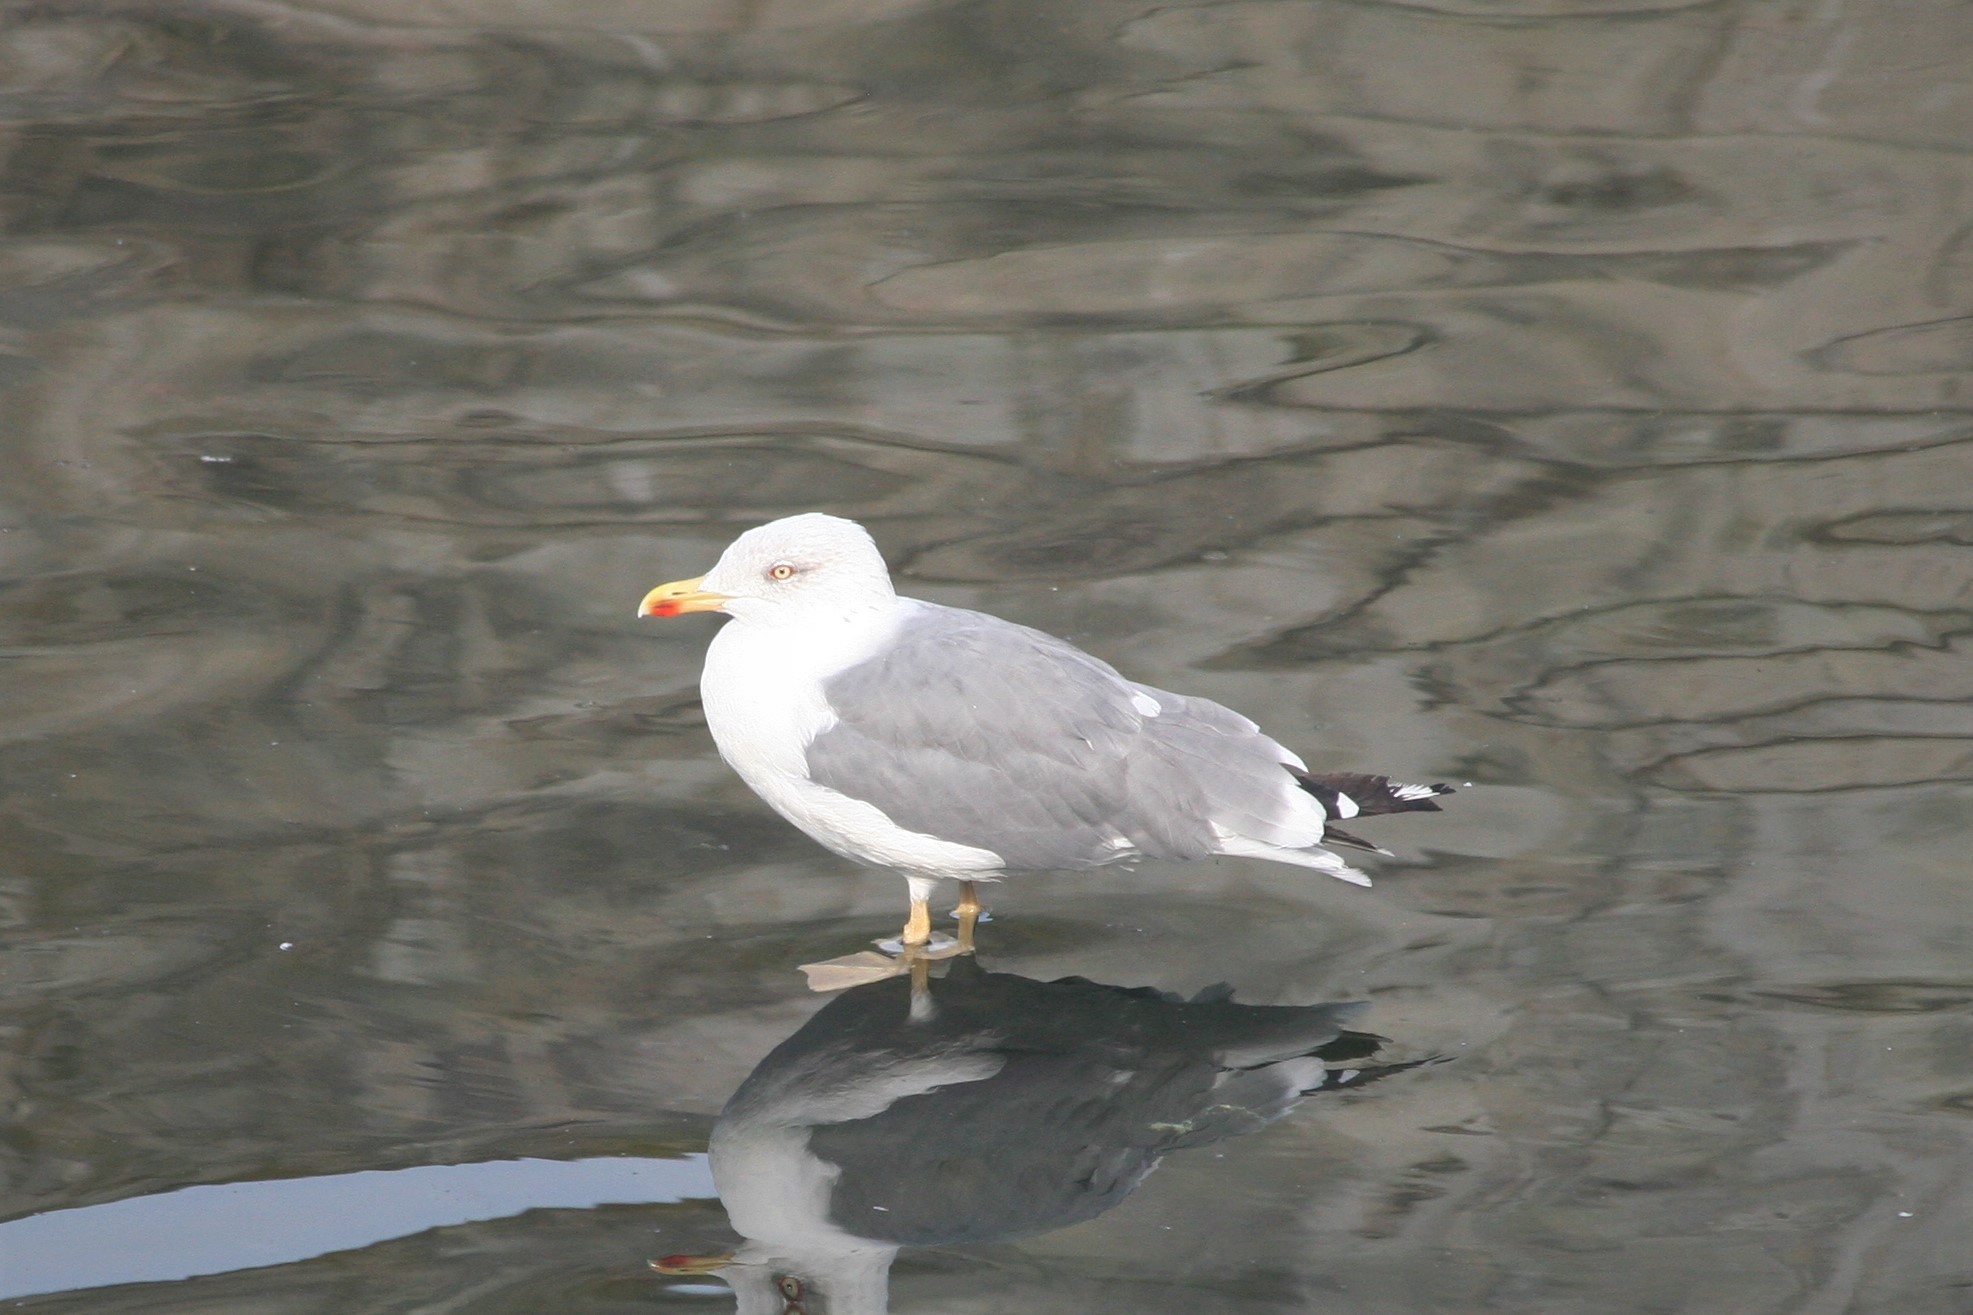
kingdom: Animalia
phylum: Chordata
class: Aves
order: Charadriiformes
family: Laridae
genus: Larus
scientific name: Larus michahellis
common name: Yellow-legged gull
